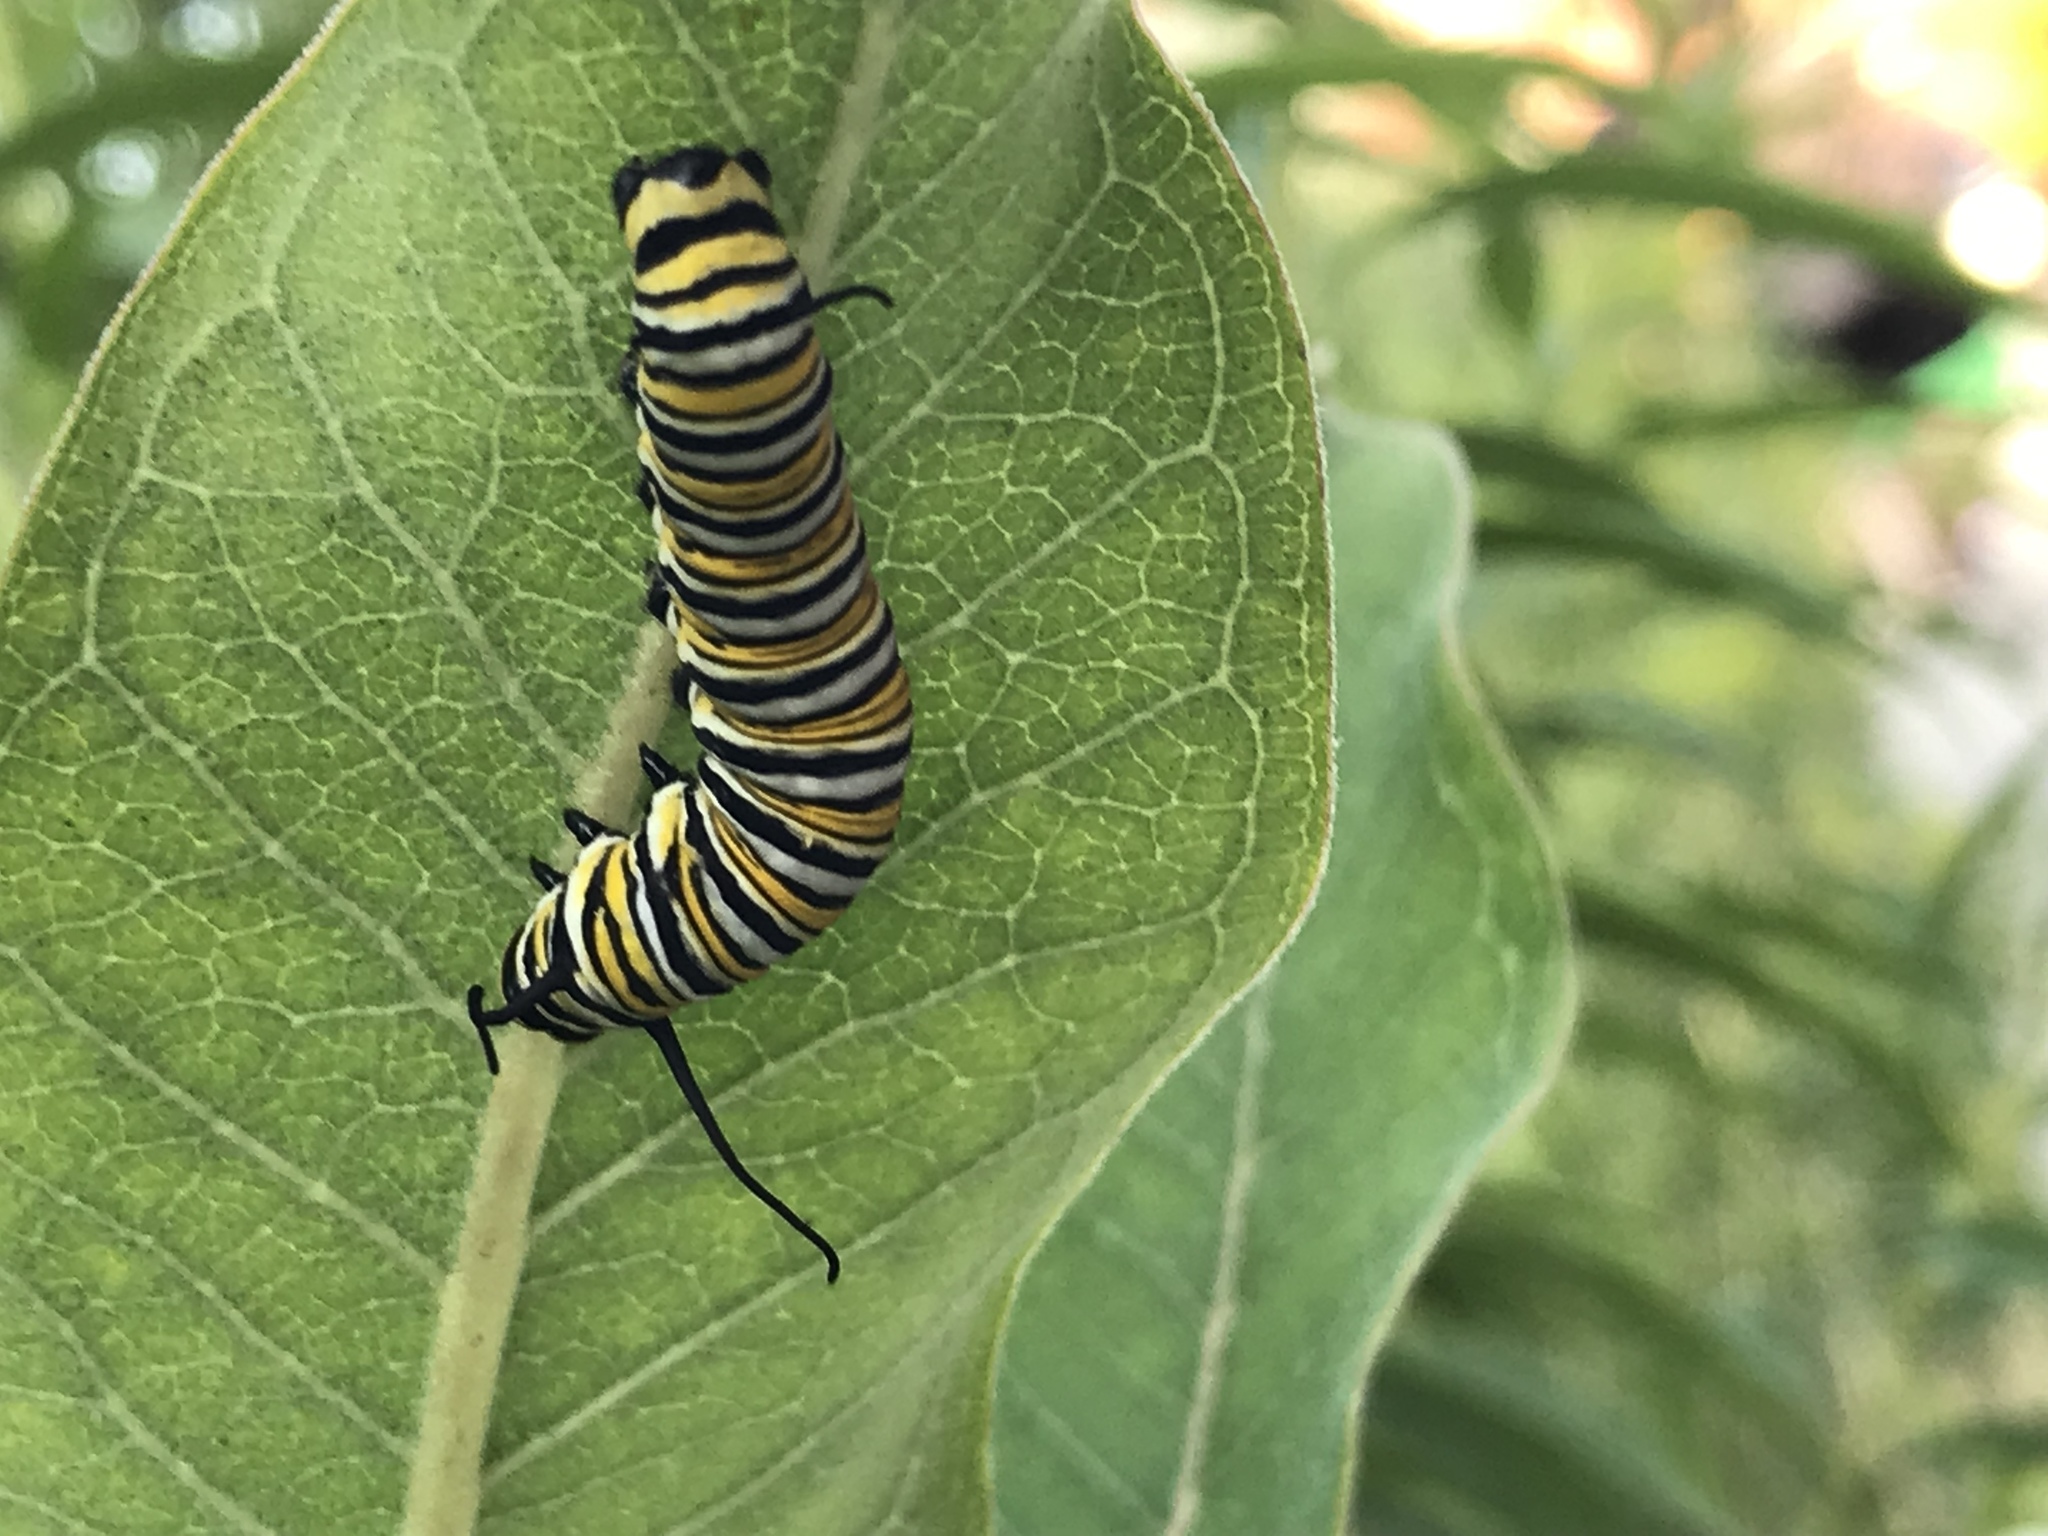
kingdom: Animalia
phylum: Arthropoda
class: Insecta
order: Lepidoptera
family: Nymphalidae
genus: Danaus
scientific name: Danaus plexippus
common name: Monarch
